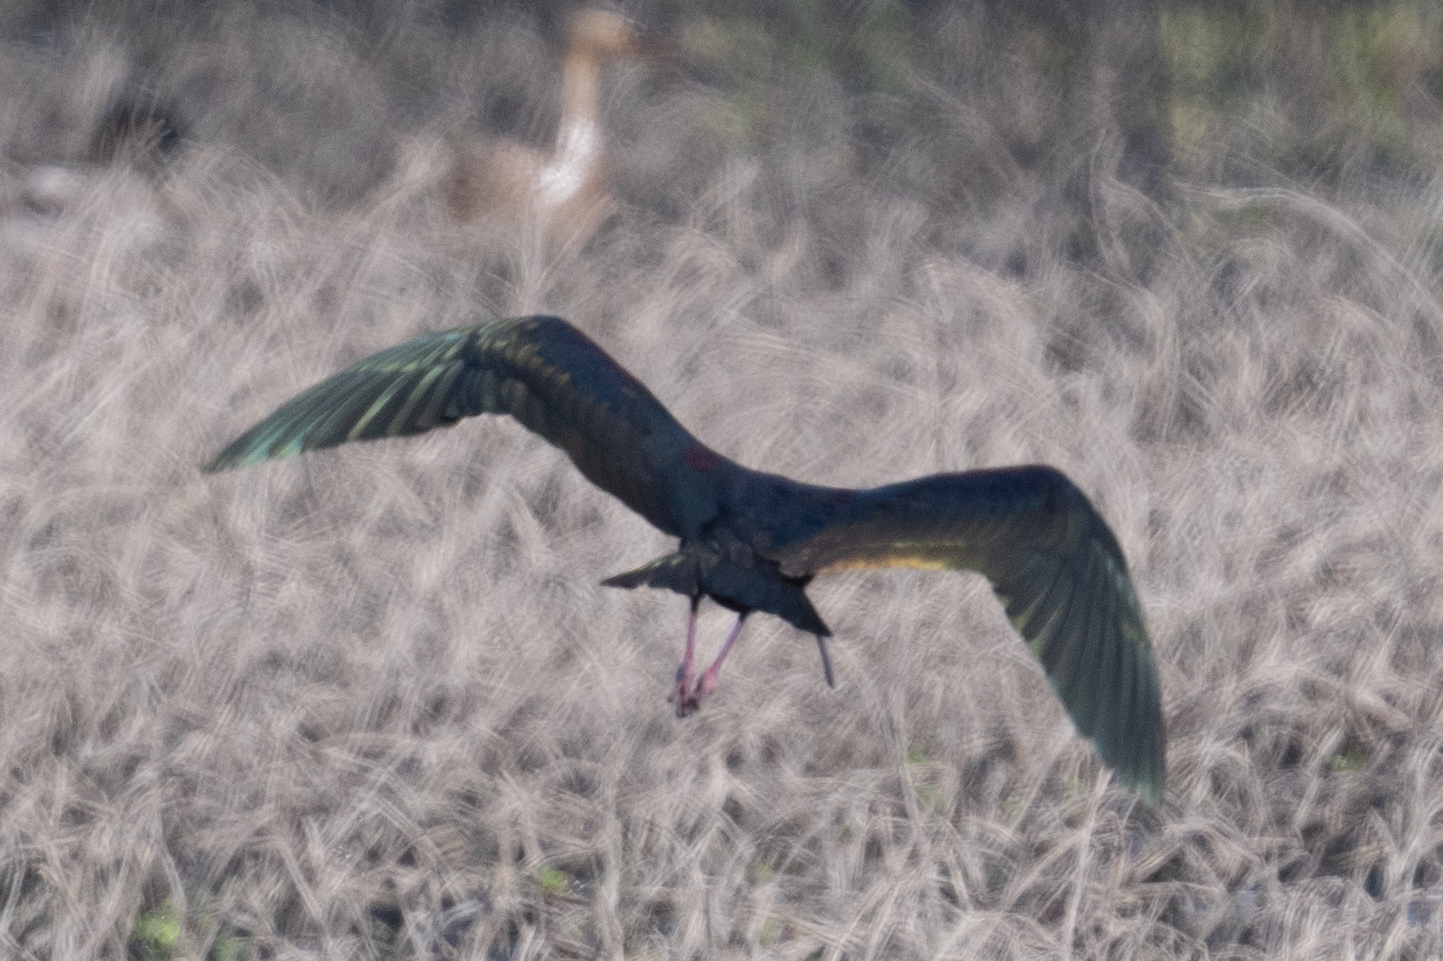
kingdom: Animalia
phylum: Chordata
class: Aves
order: Pelecaniformes
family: Threskiornithidae
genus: Plegadis
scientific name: Plegadis chihi
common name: White-faced ibis
